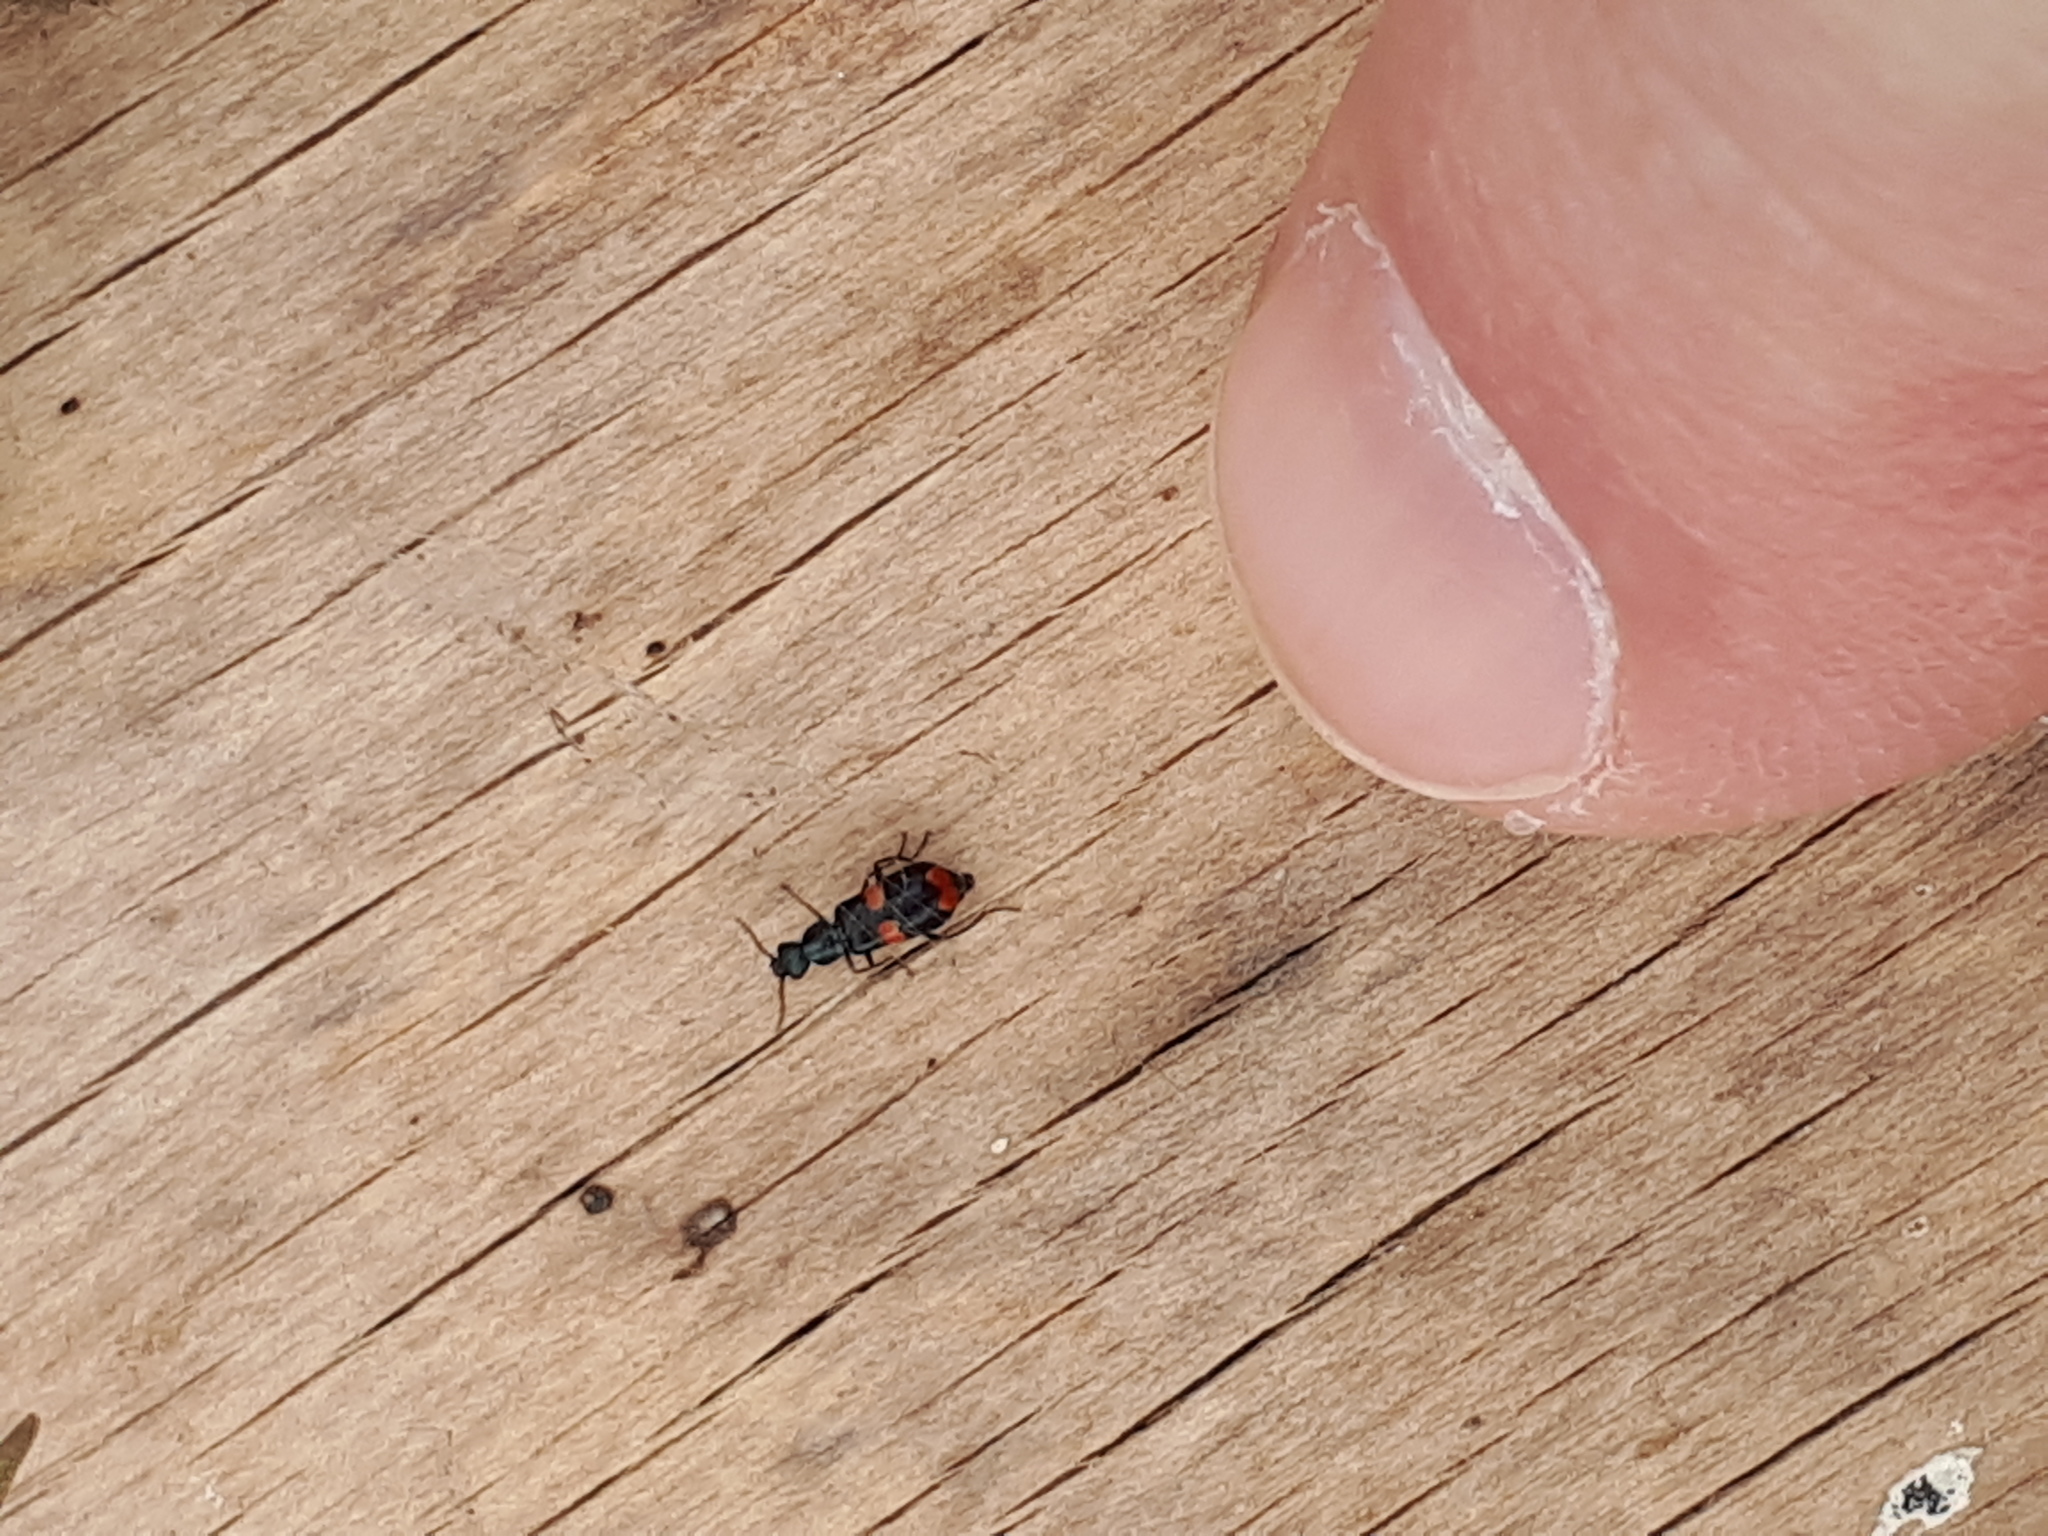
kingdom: Animalia
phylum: Arthropoda
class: Insecta
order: Coleoptera
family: Melyridae
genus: Anthocomus
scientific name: Anthocomus fasciatus
